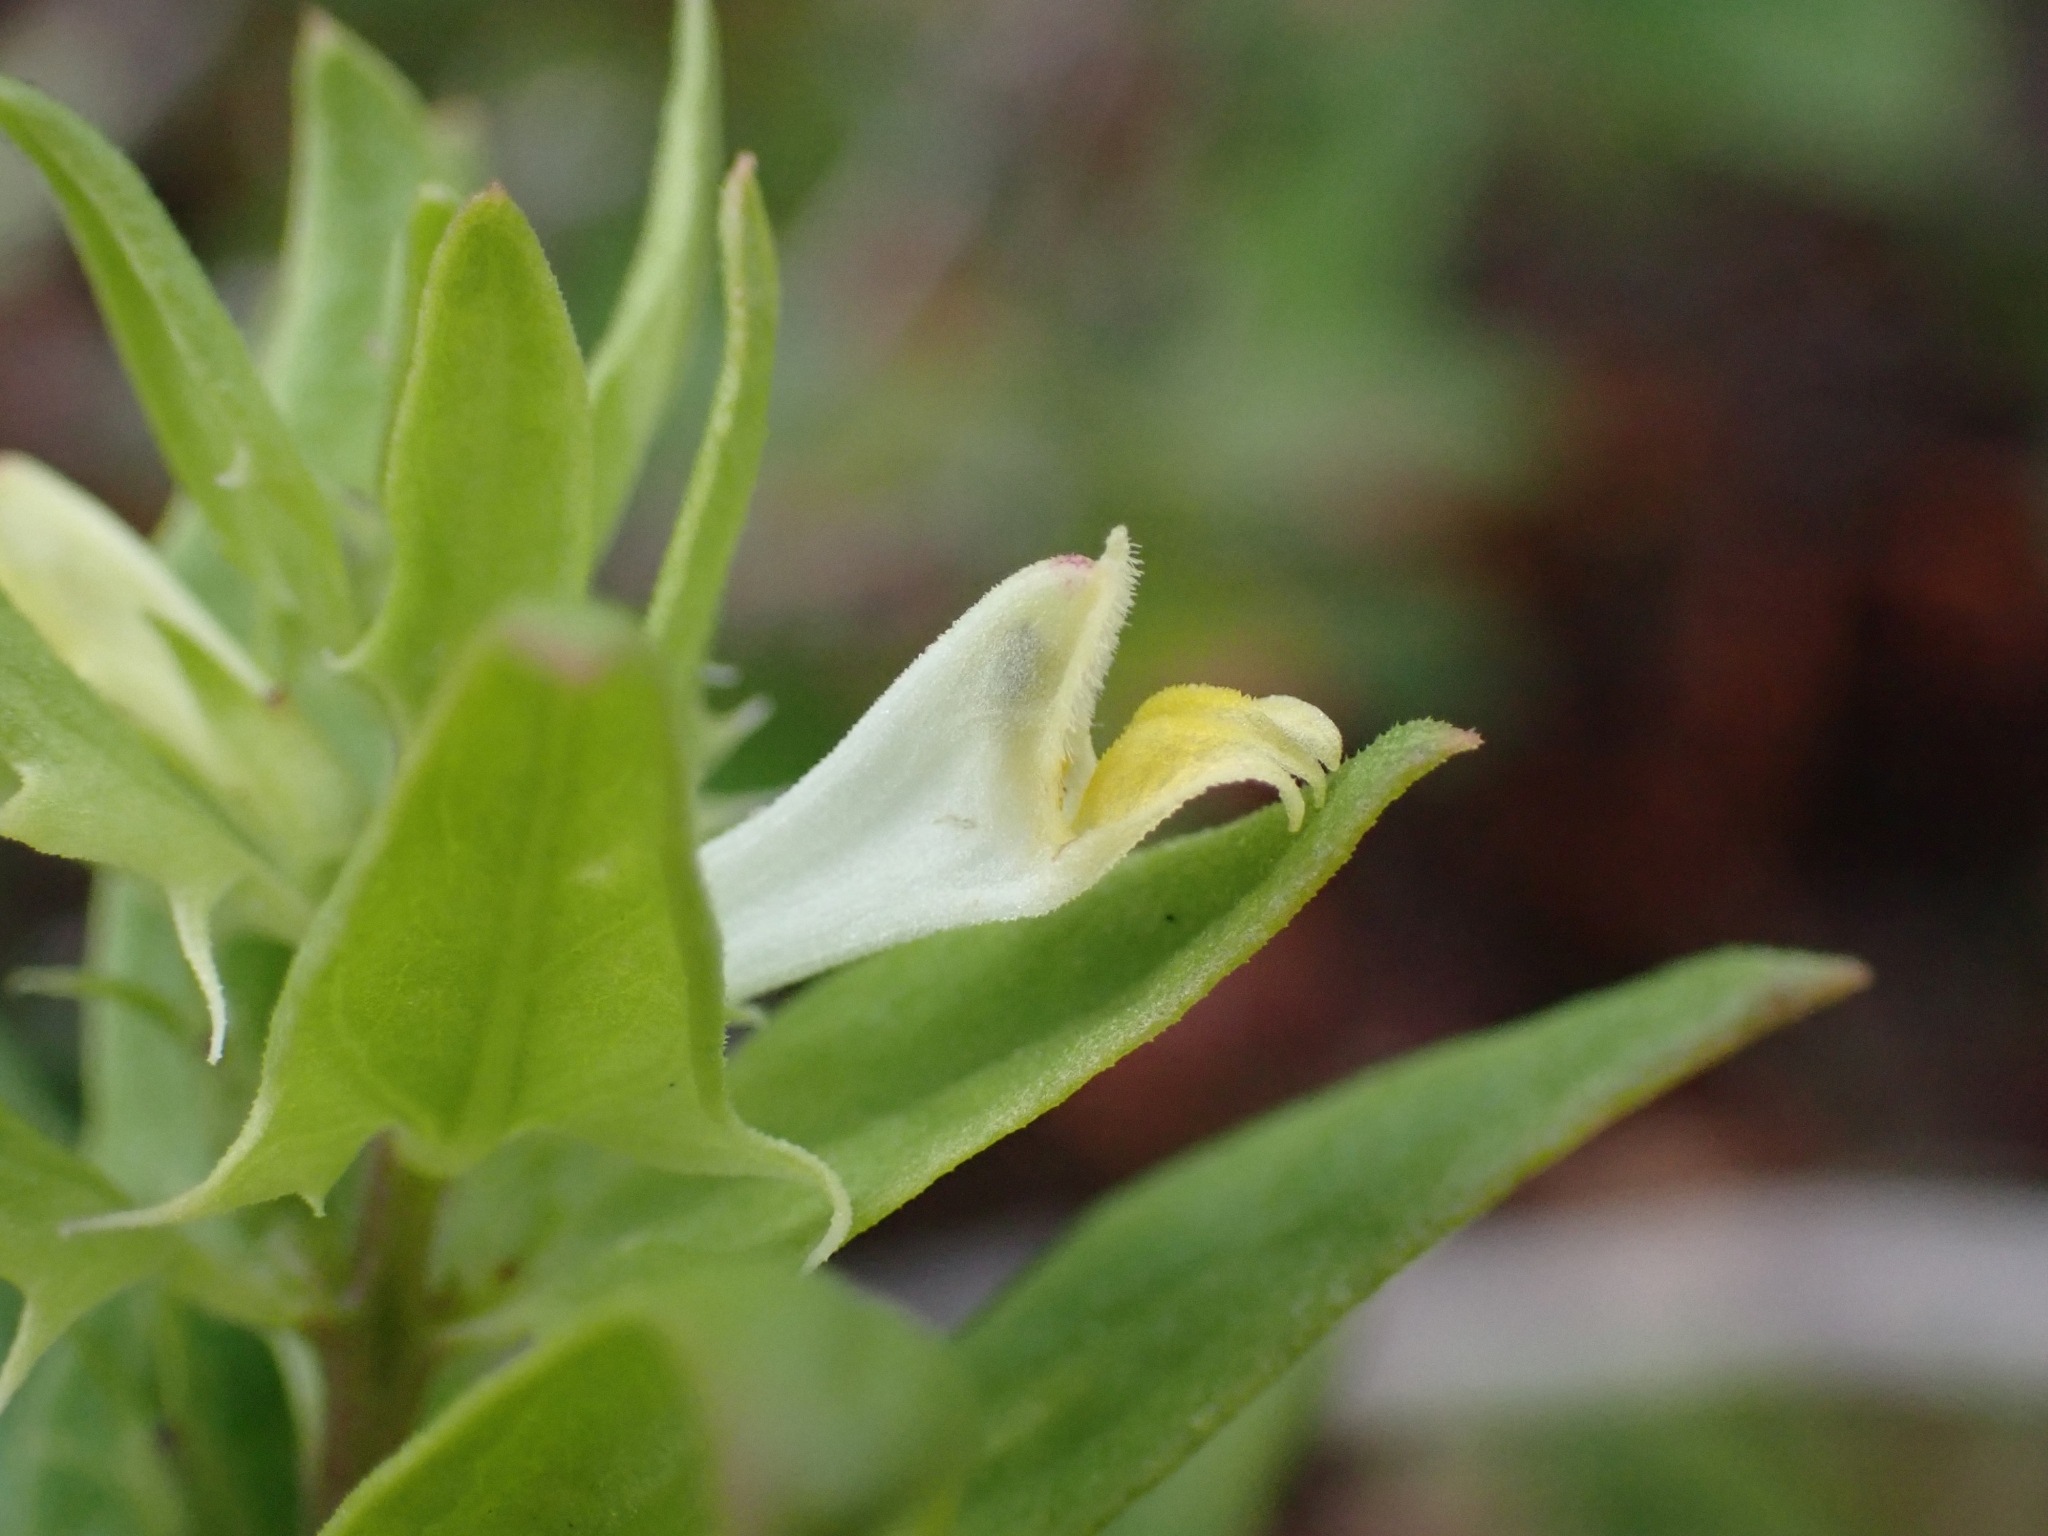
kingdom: Plantae
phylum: Tracheophyta
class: Magnoliopsida
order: Lamiales
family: Orobanchaceae
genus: Melampyrum
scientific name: Melampyrum lineare
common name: American cow-wheat
